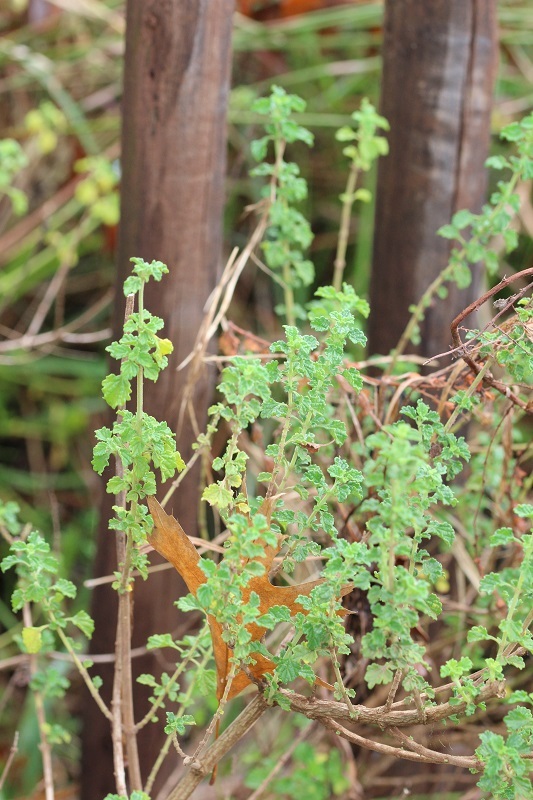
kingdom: Plantae
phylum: Tracheophyta
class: Magnoliopsida
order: Lamiales
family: Lamiaceae
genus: Leonotis
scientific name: Leonotis ocymifolia
